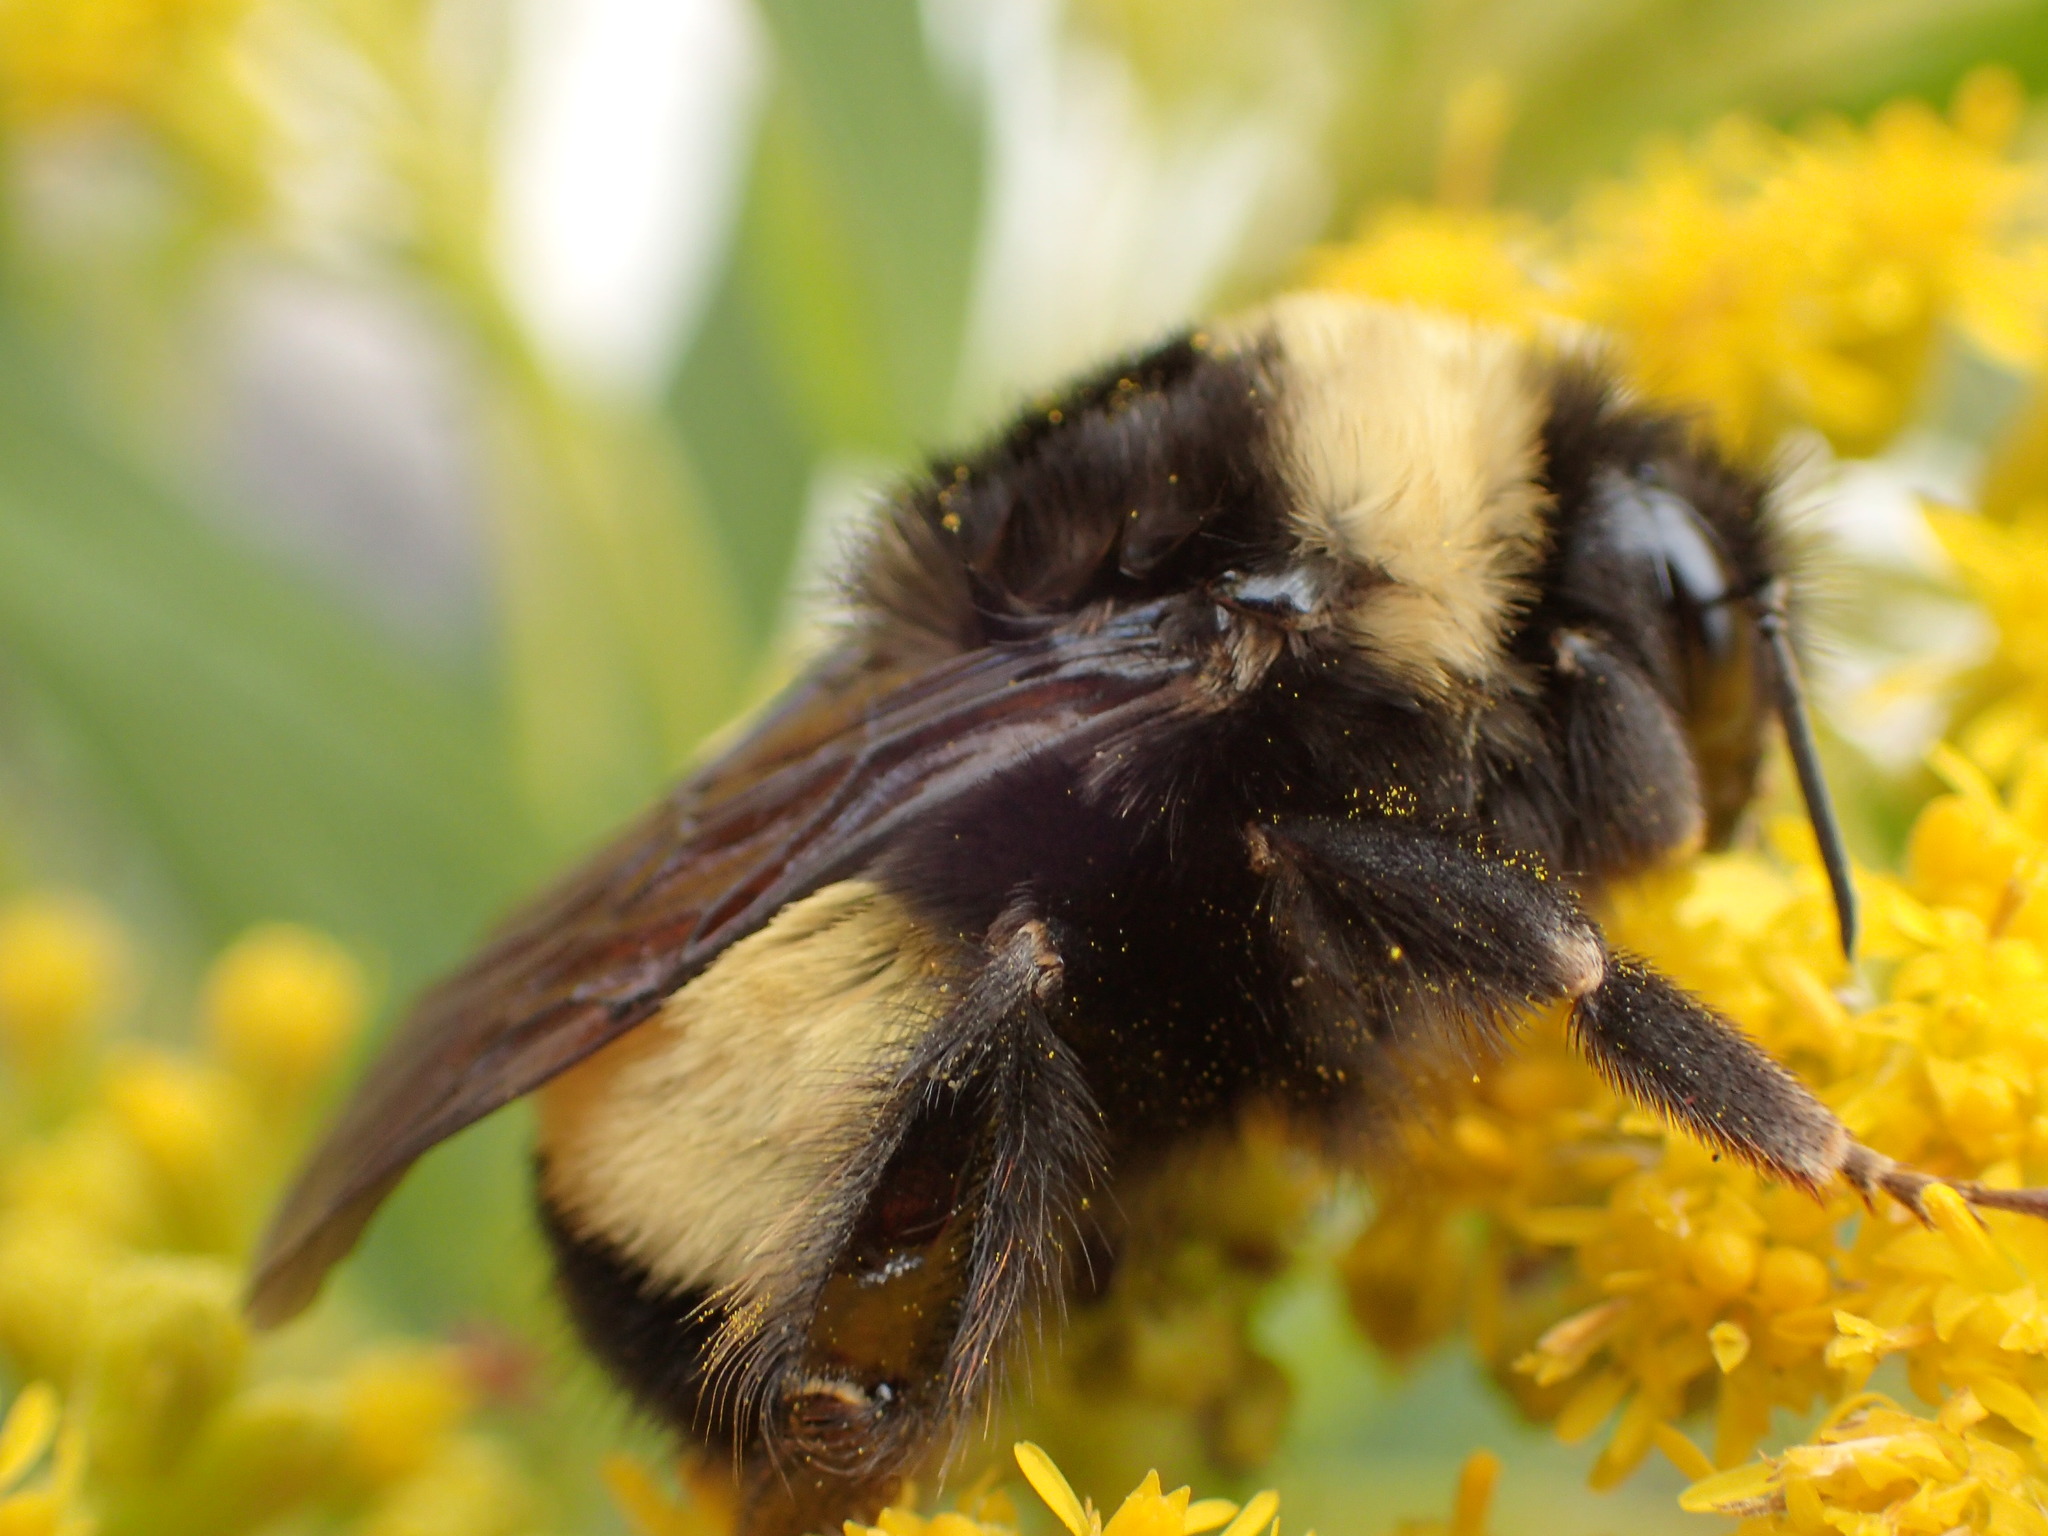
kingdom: Animalia
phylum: Arthropoda
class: Insecta
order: Hymenoptera
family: Apidae
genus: Bombus
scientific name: Bombus terricola
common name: Yellow-banded bumble bee
